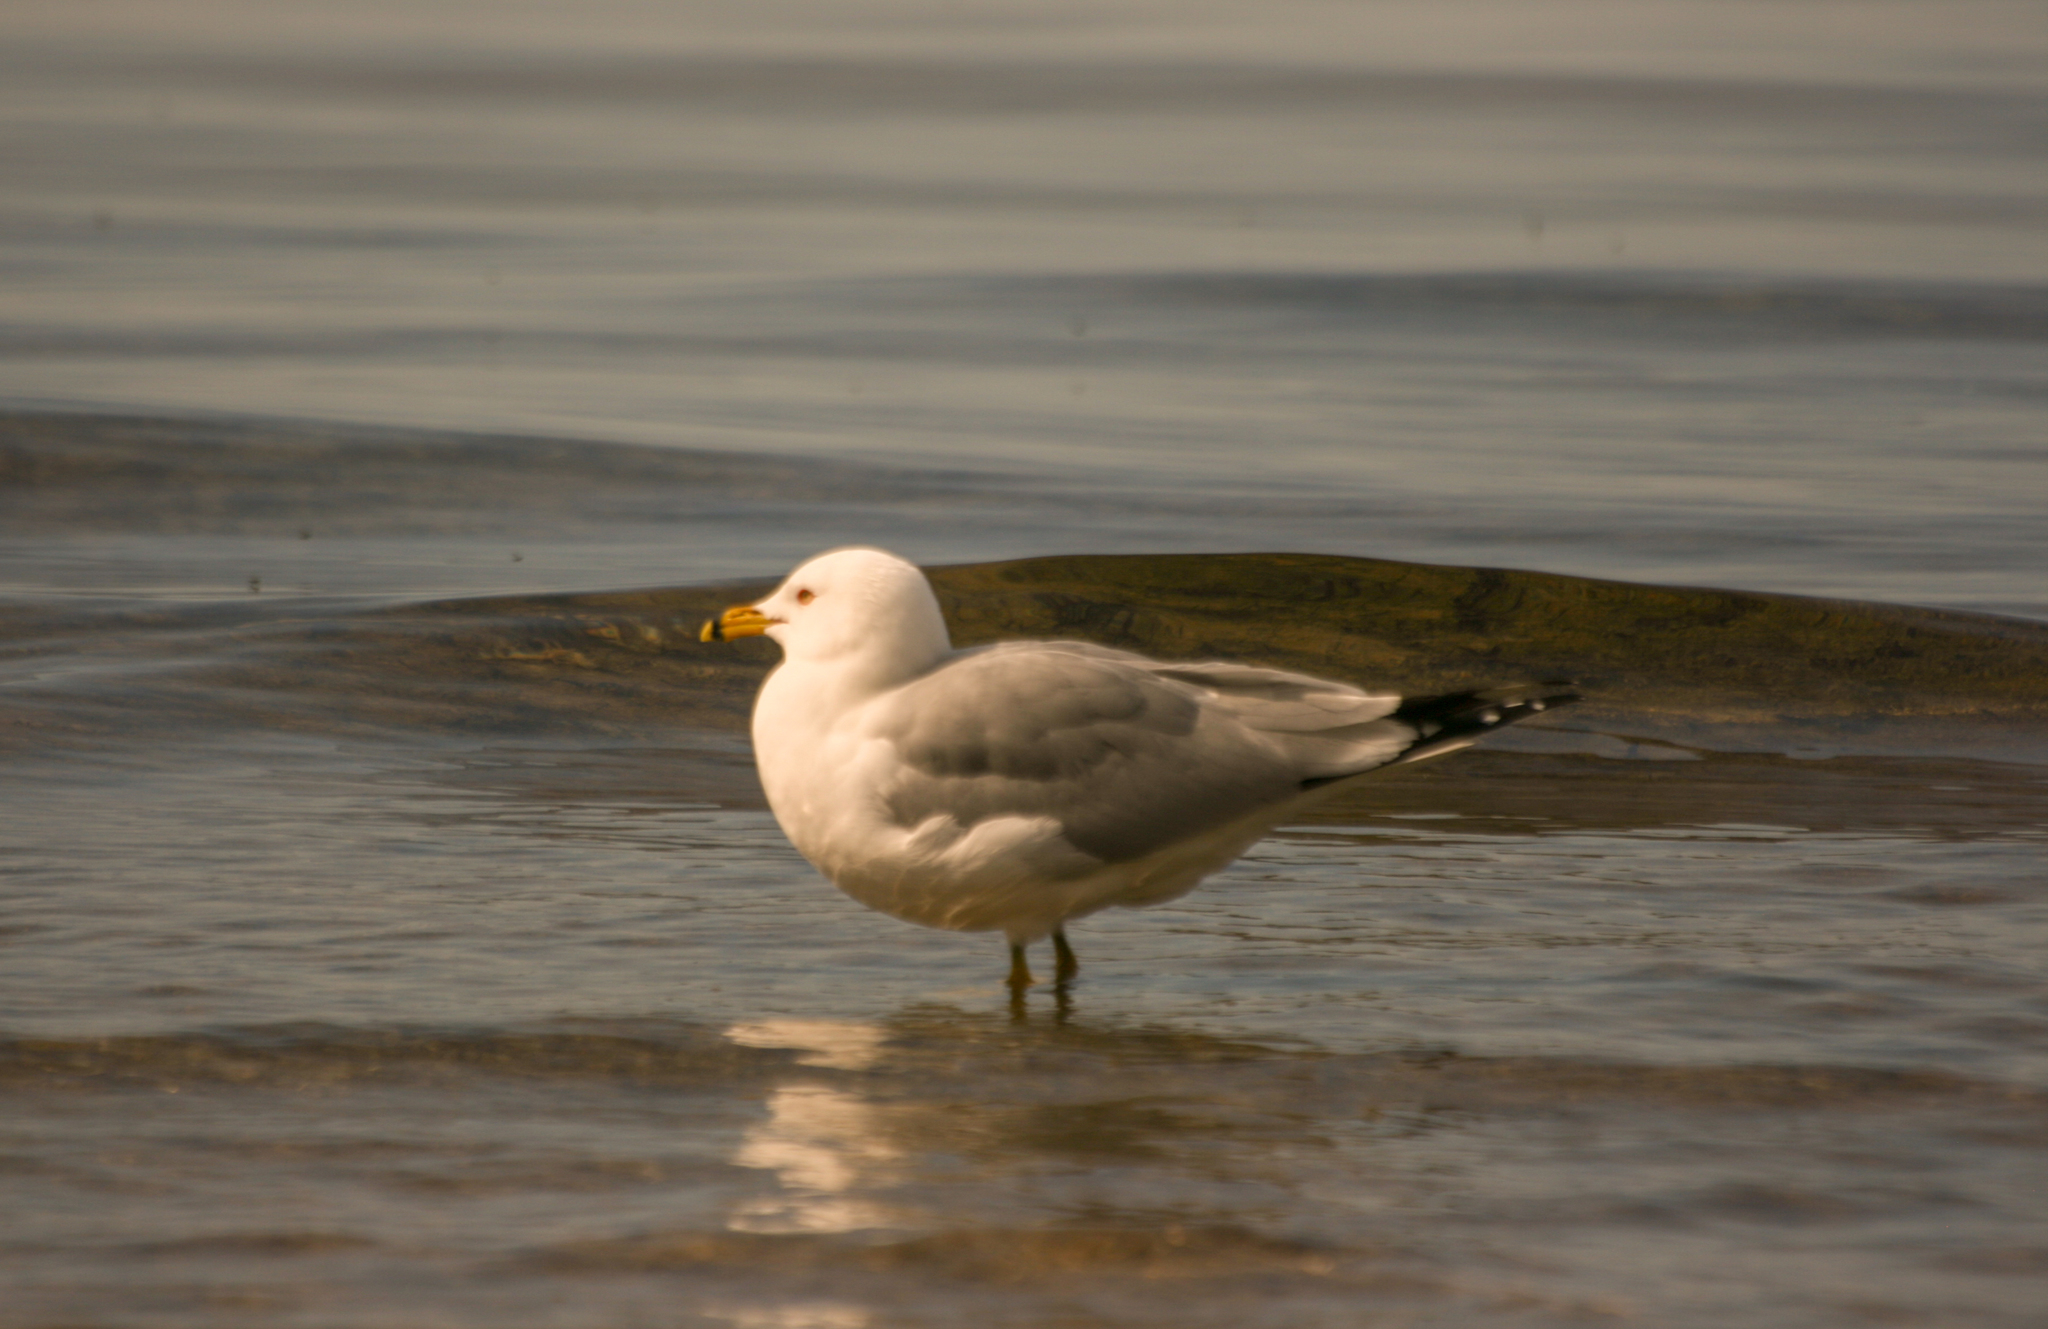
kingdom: Animalia
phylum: Chordata
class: Aves
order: Charadriiformes
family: Laridae
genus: Larus
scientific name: Larus delawarensis
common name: Ring-billed gull
